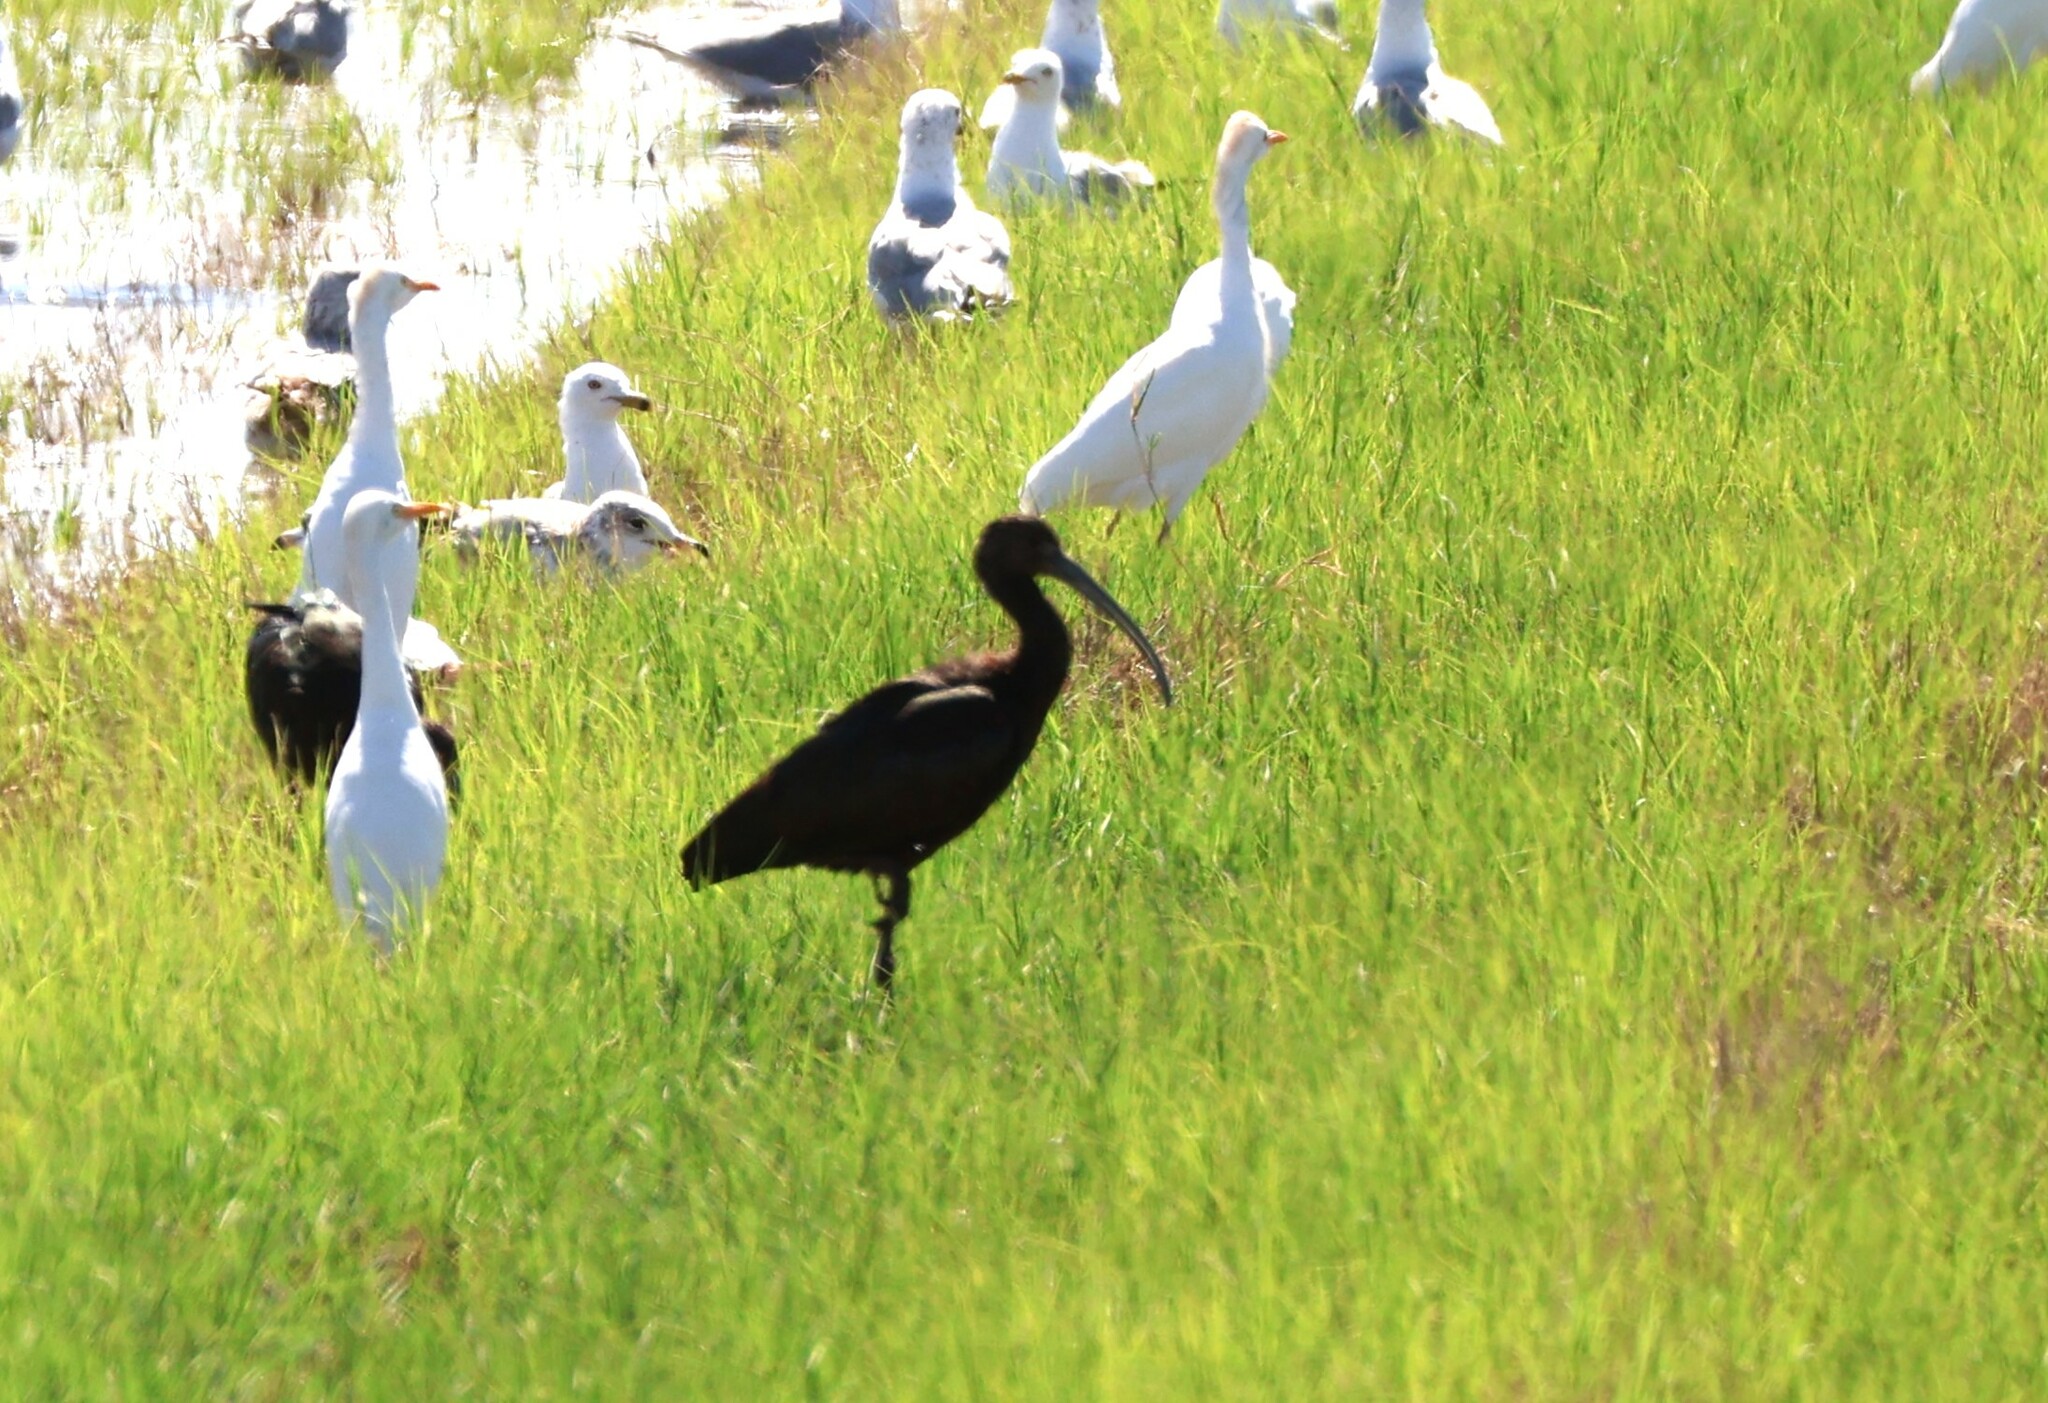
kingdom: Animalia
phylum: Chordata
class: Aves
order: Pelecaniformes
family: Threskiornithidae
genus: Plegadis
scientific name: Plegadis chihi
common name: White-faced ibis
